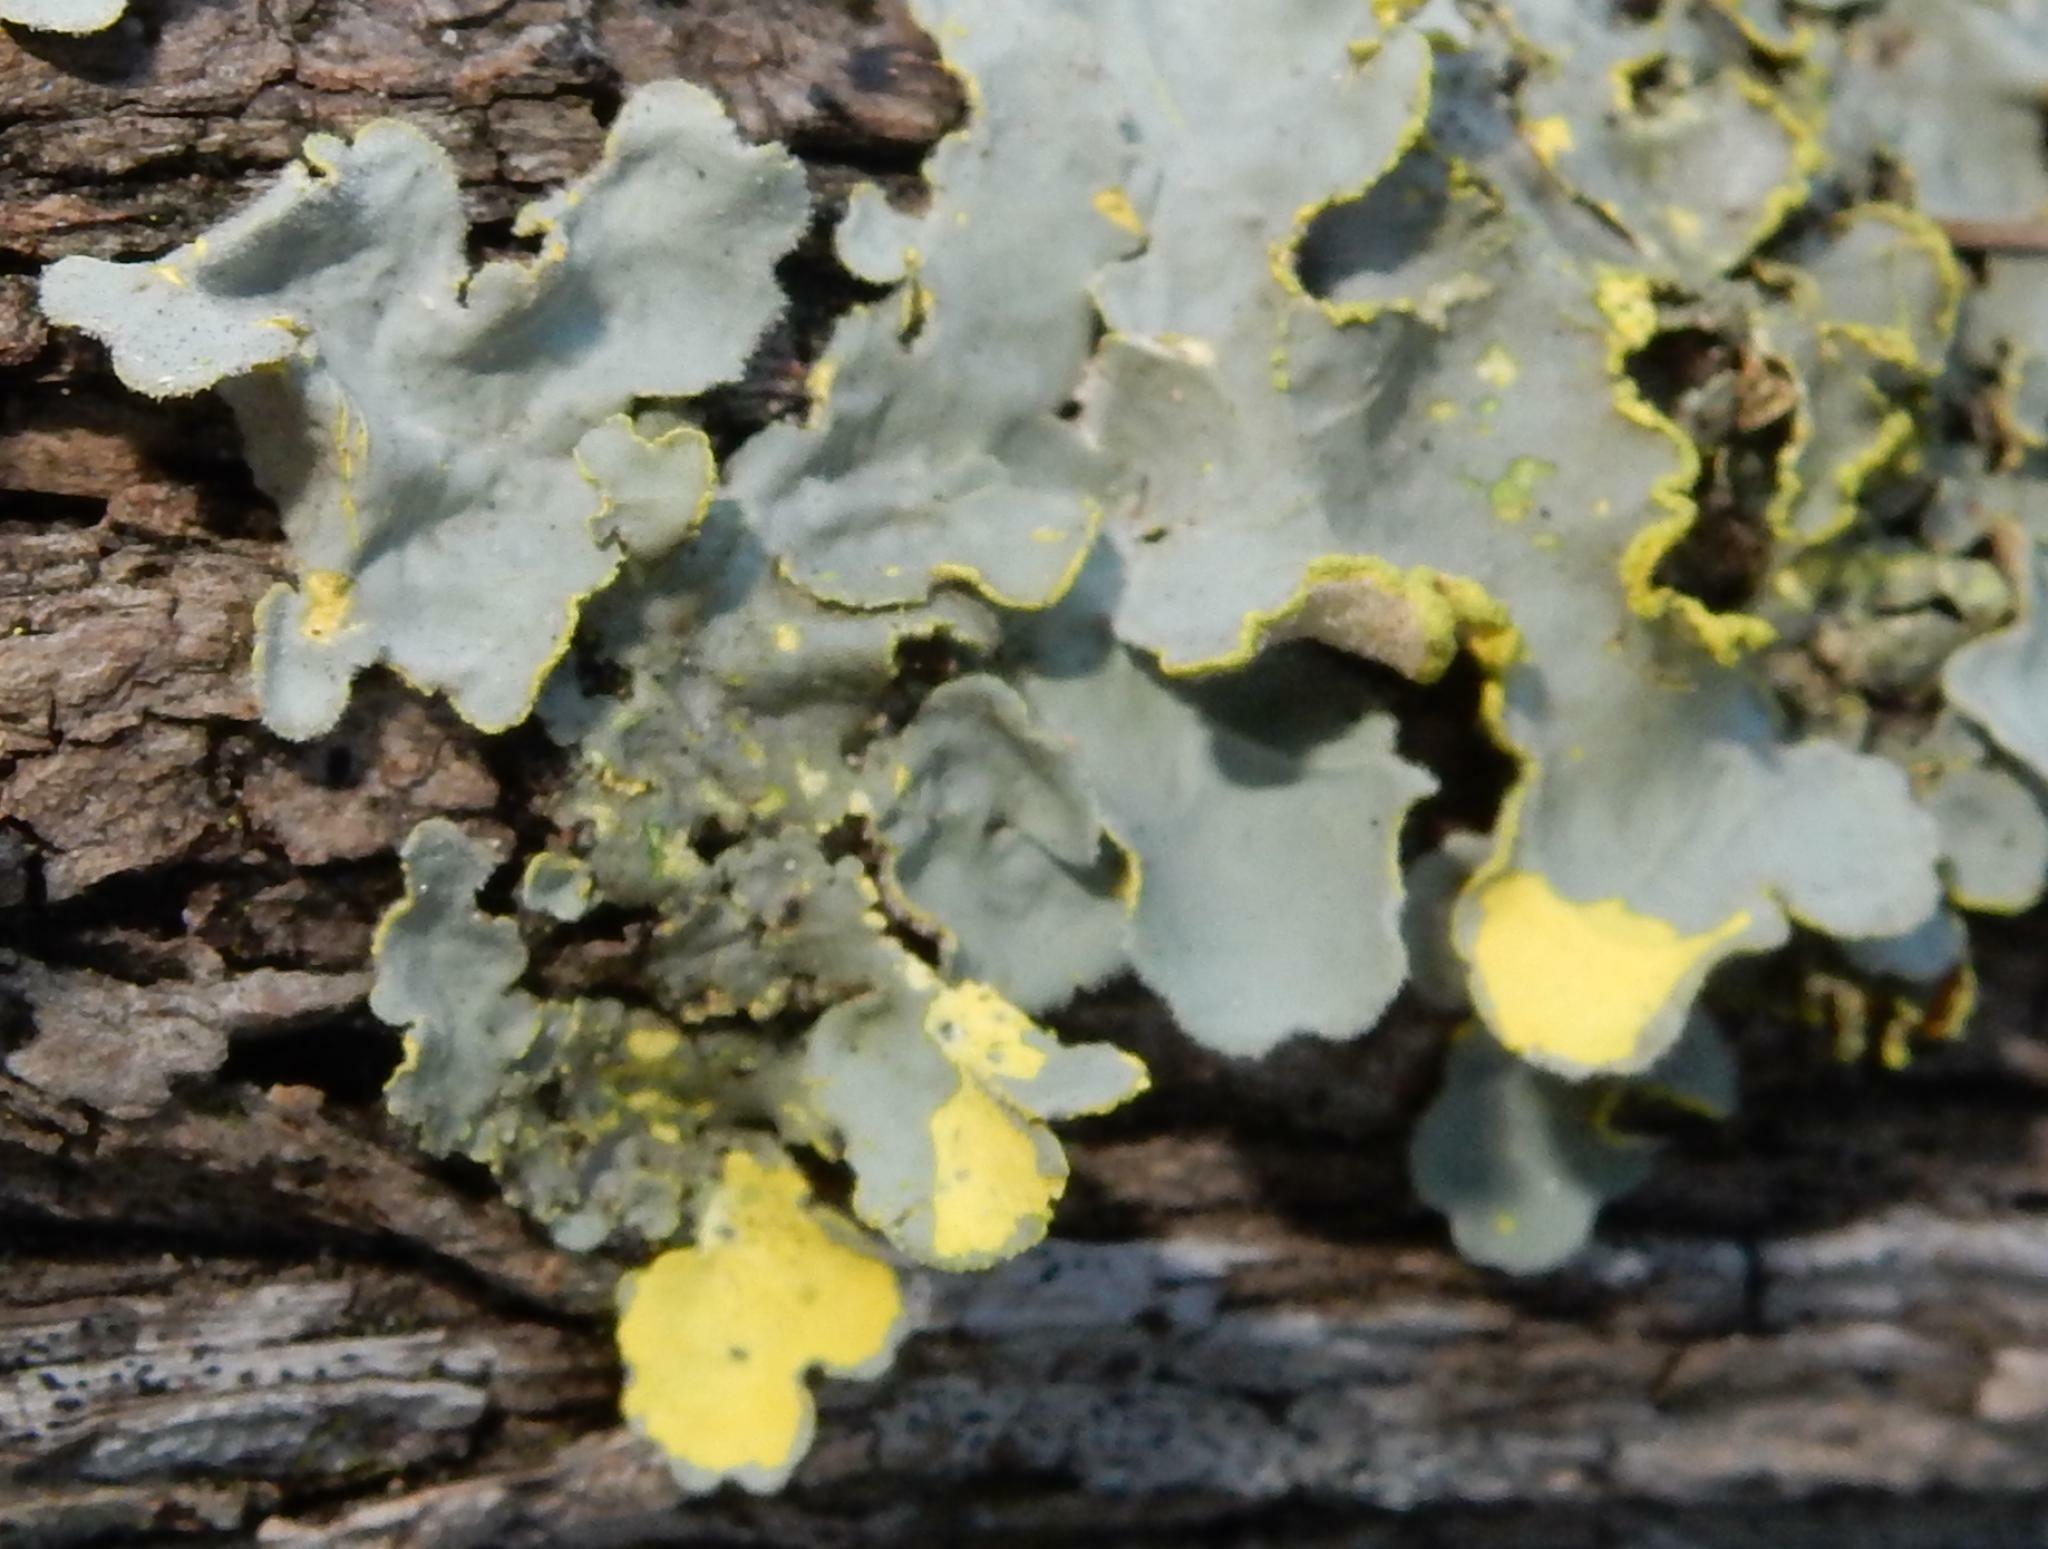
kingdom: Fungi
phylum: Ascomycota
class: Lecanoromycetes
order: Peltigerales
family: Lobariaceae
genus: Pseudocyphellaria
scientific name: Pseudocyphellaria aurata
